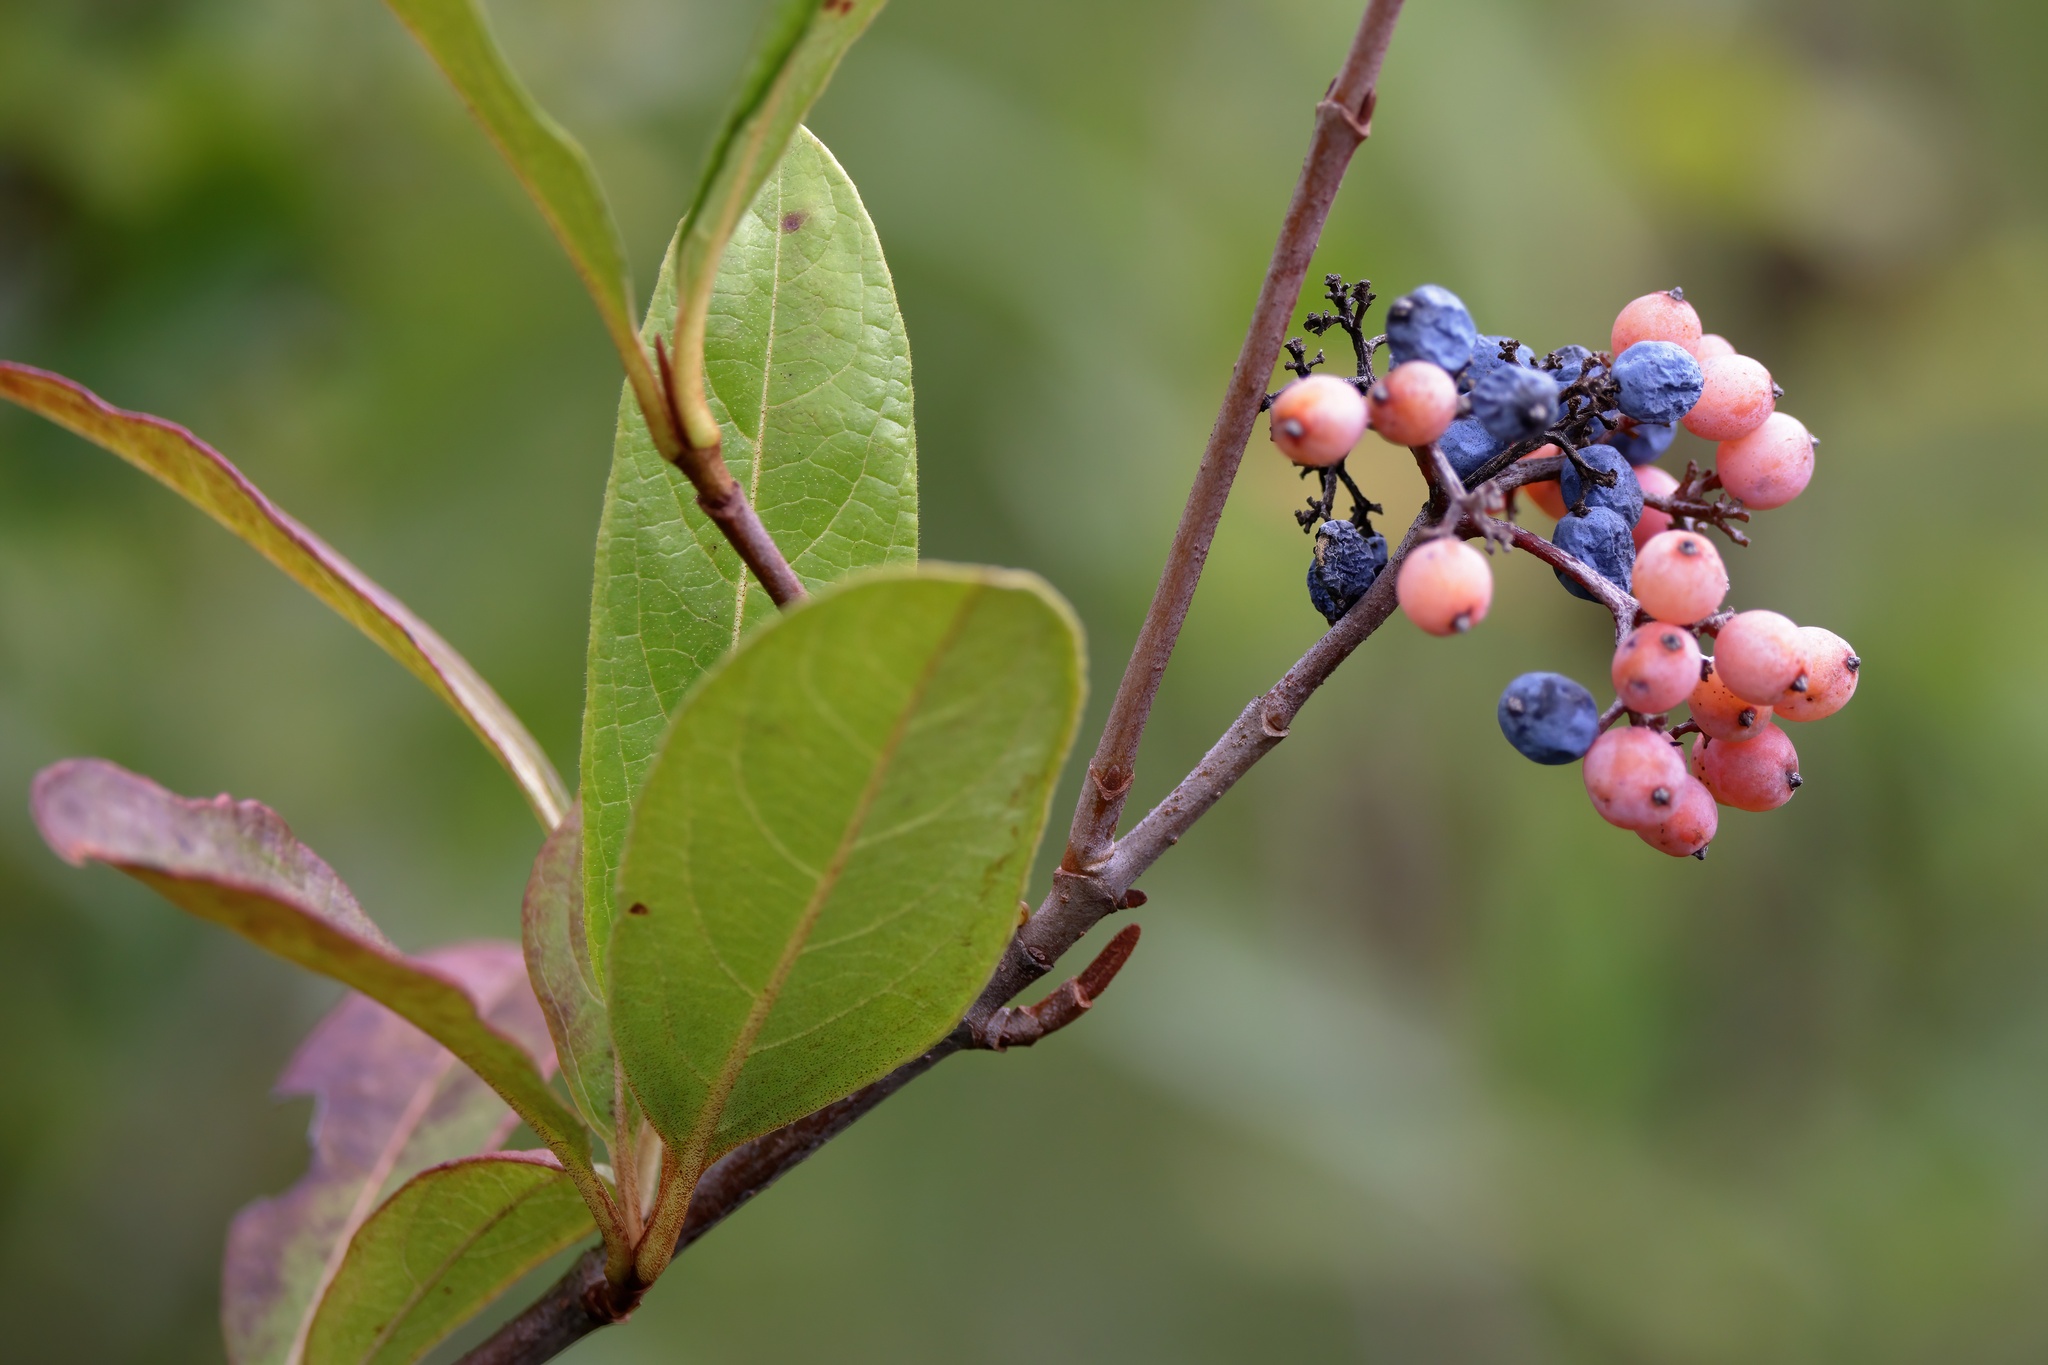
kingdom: Plantae
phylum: Tracheophyta
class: Magnoliopsida
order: Dipsacales
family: Viburnaceae
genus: Viburnum
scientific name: Viburnum nudum
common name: Possum haw
